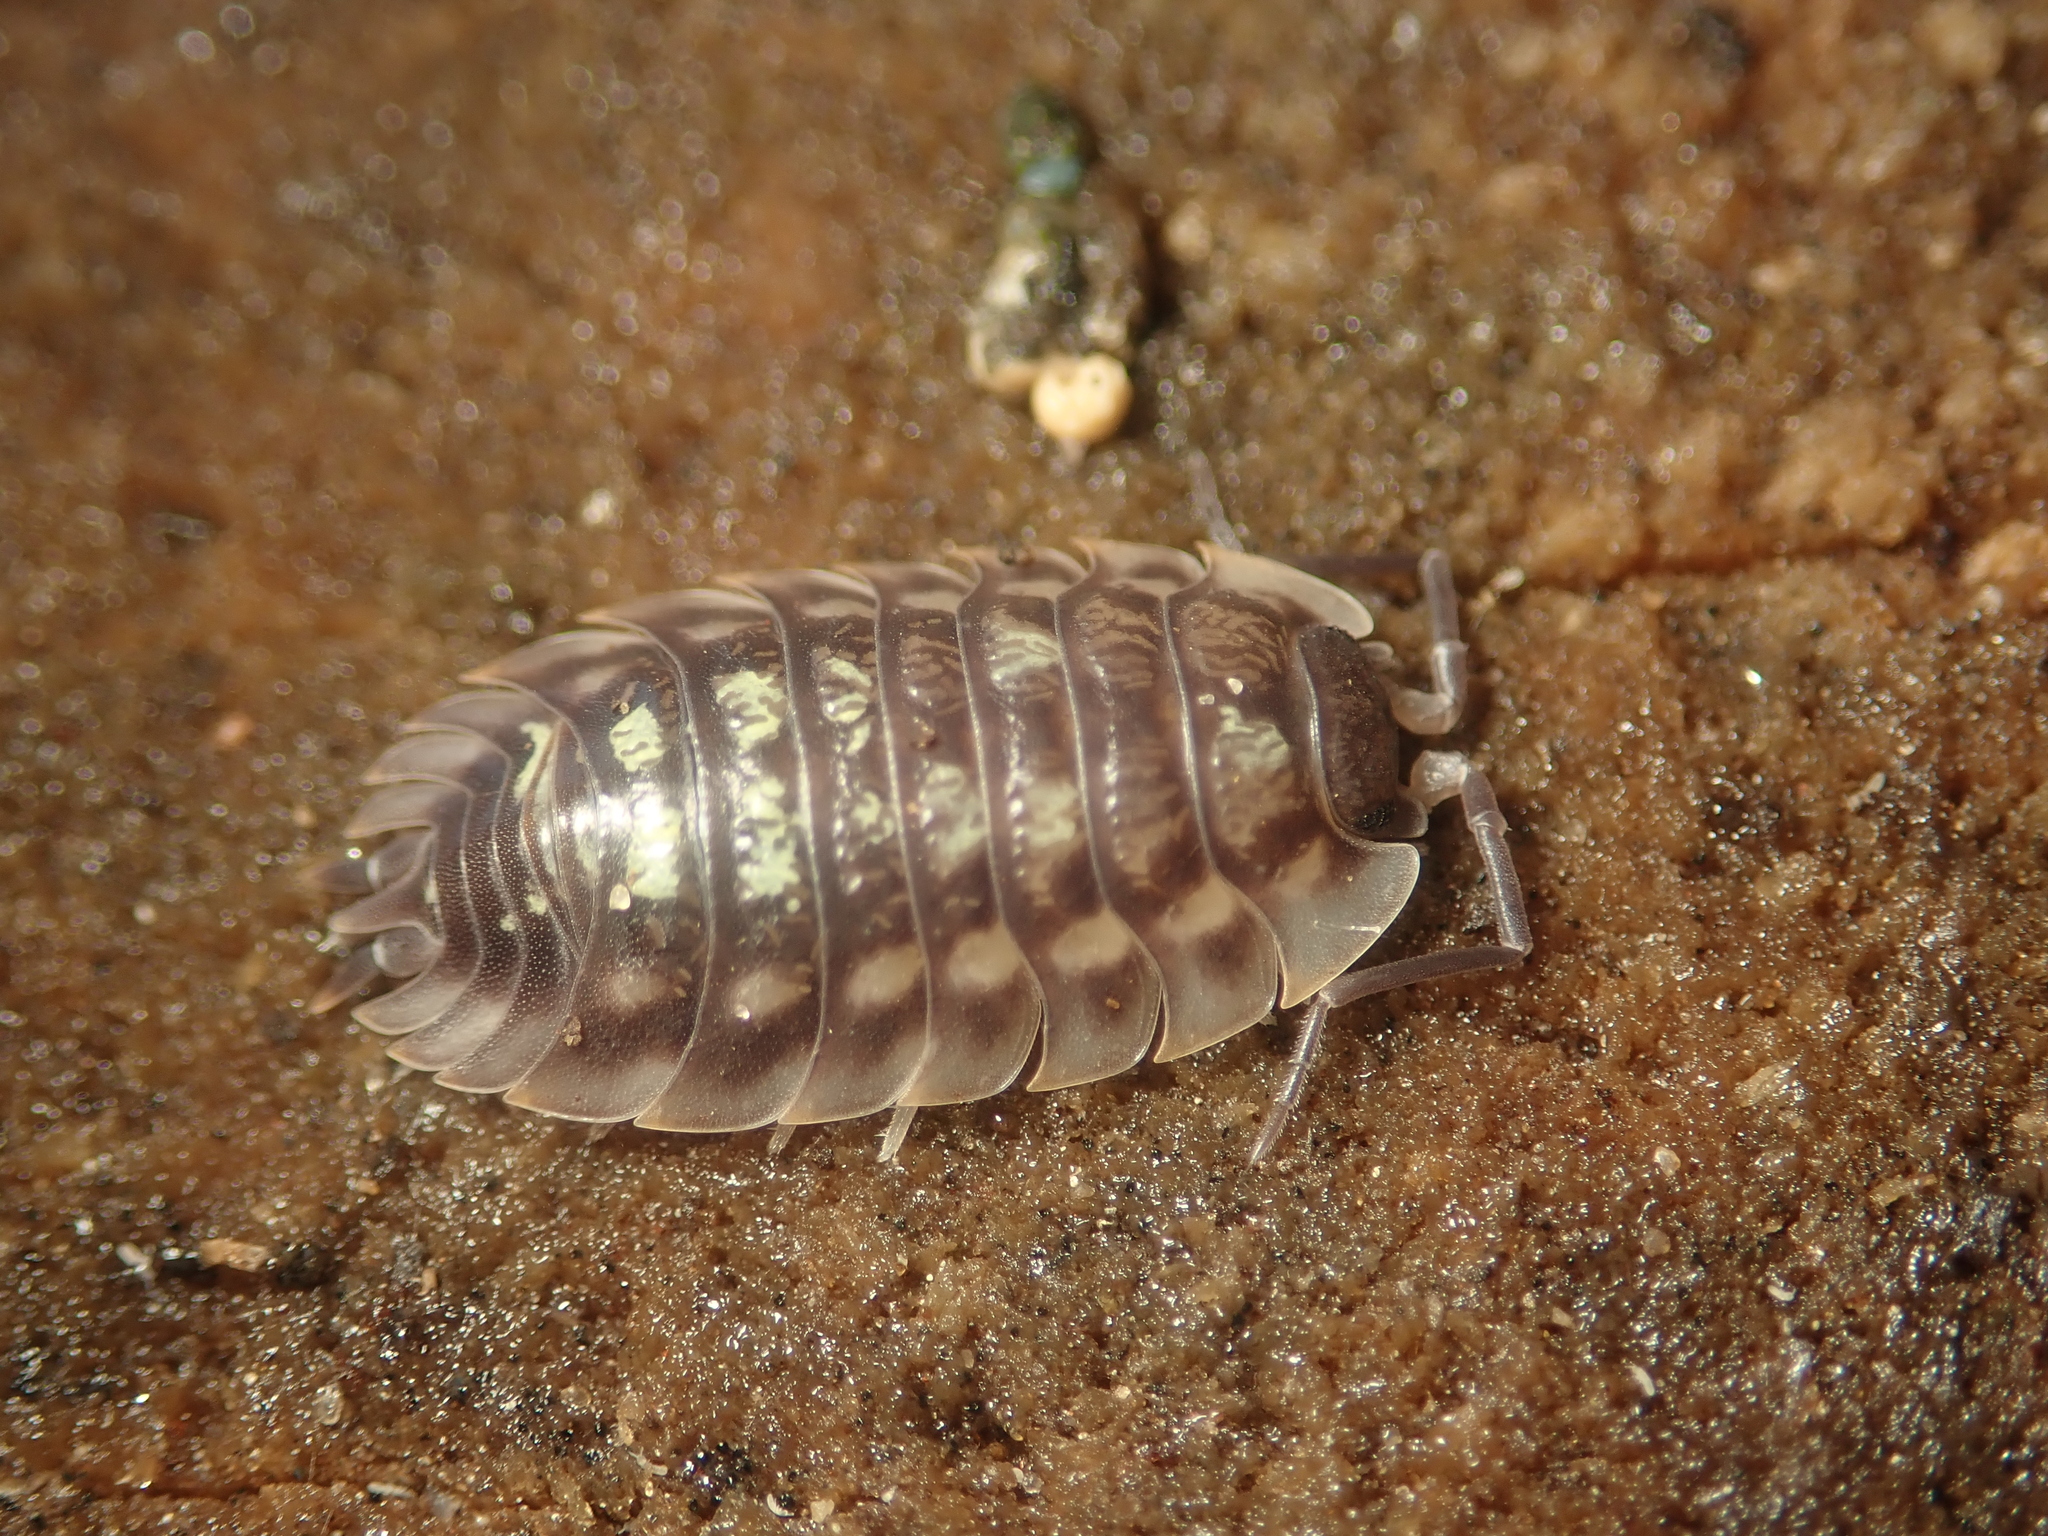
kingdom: Animalia
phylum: Arthropoda
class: Malacostraca
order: Isopoda
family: Oniscidae
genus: Oniscus
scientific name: Oniscus asellus
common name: Common shiny woodlouse
